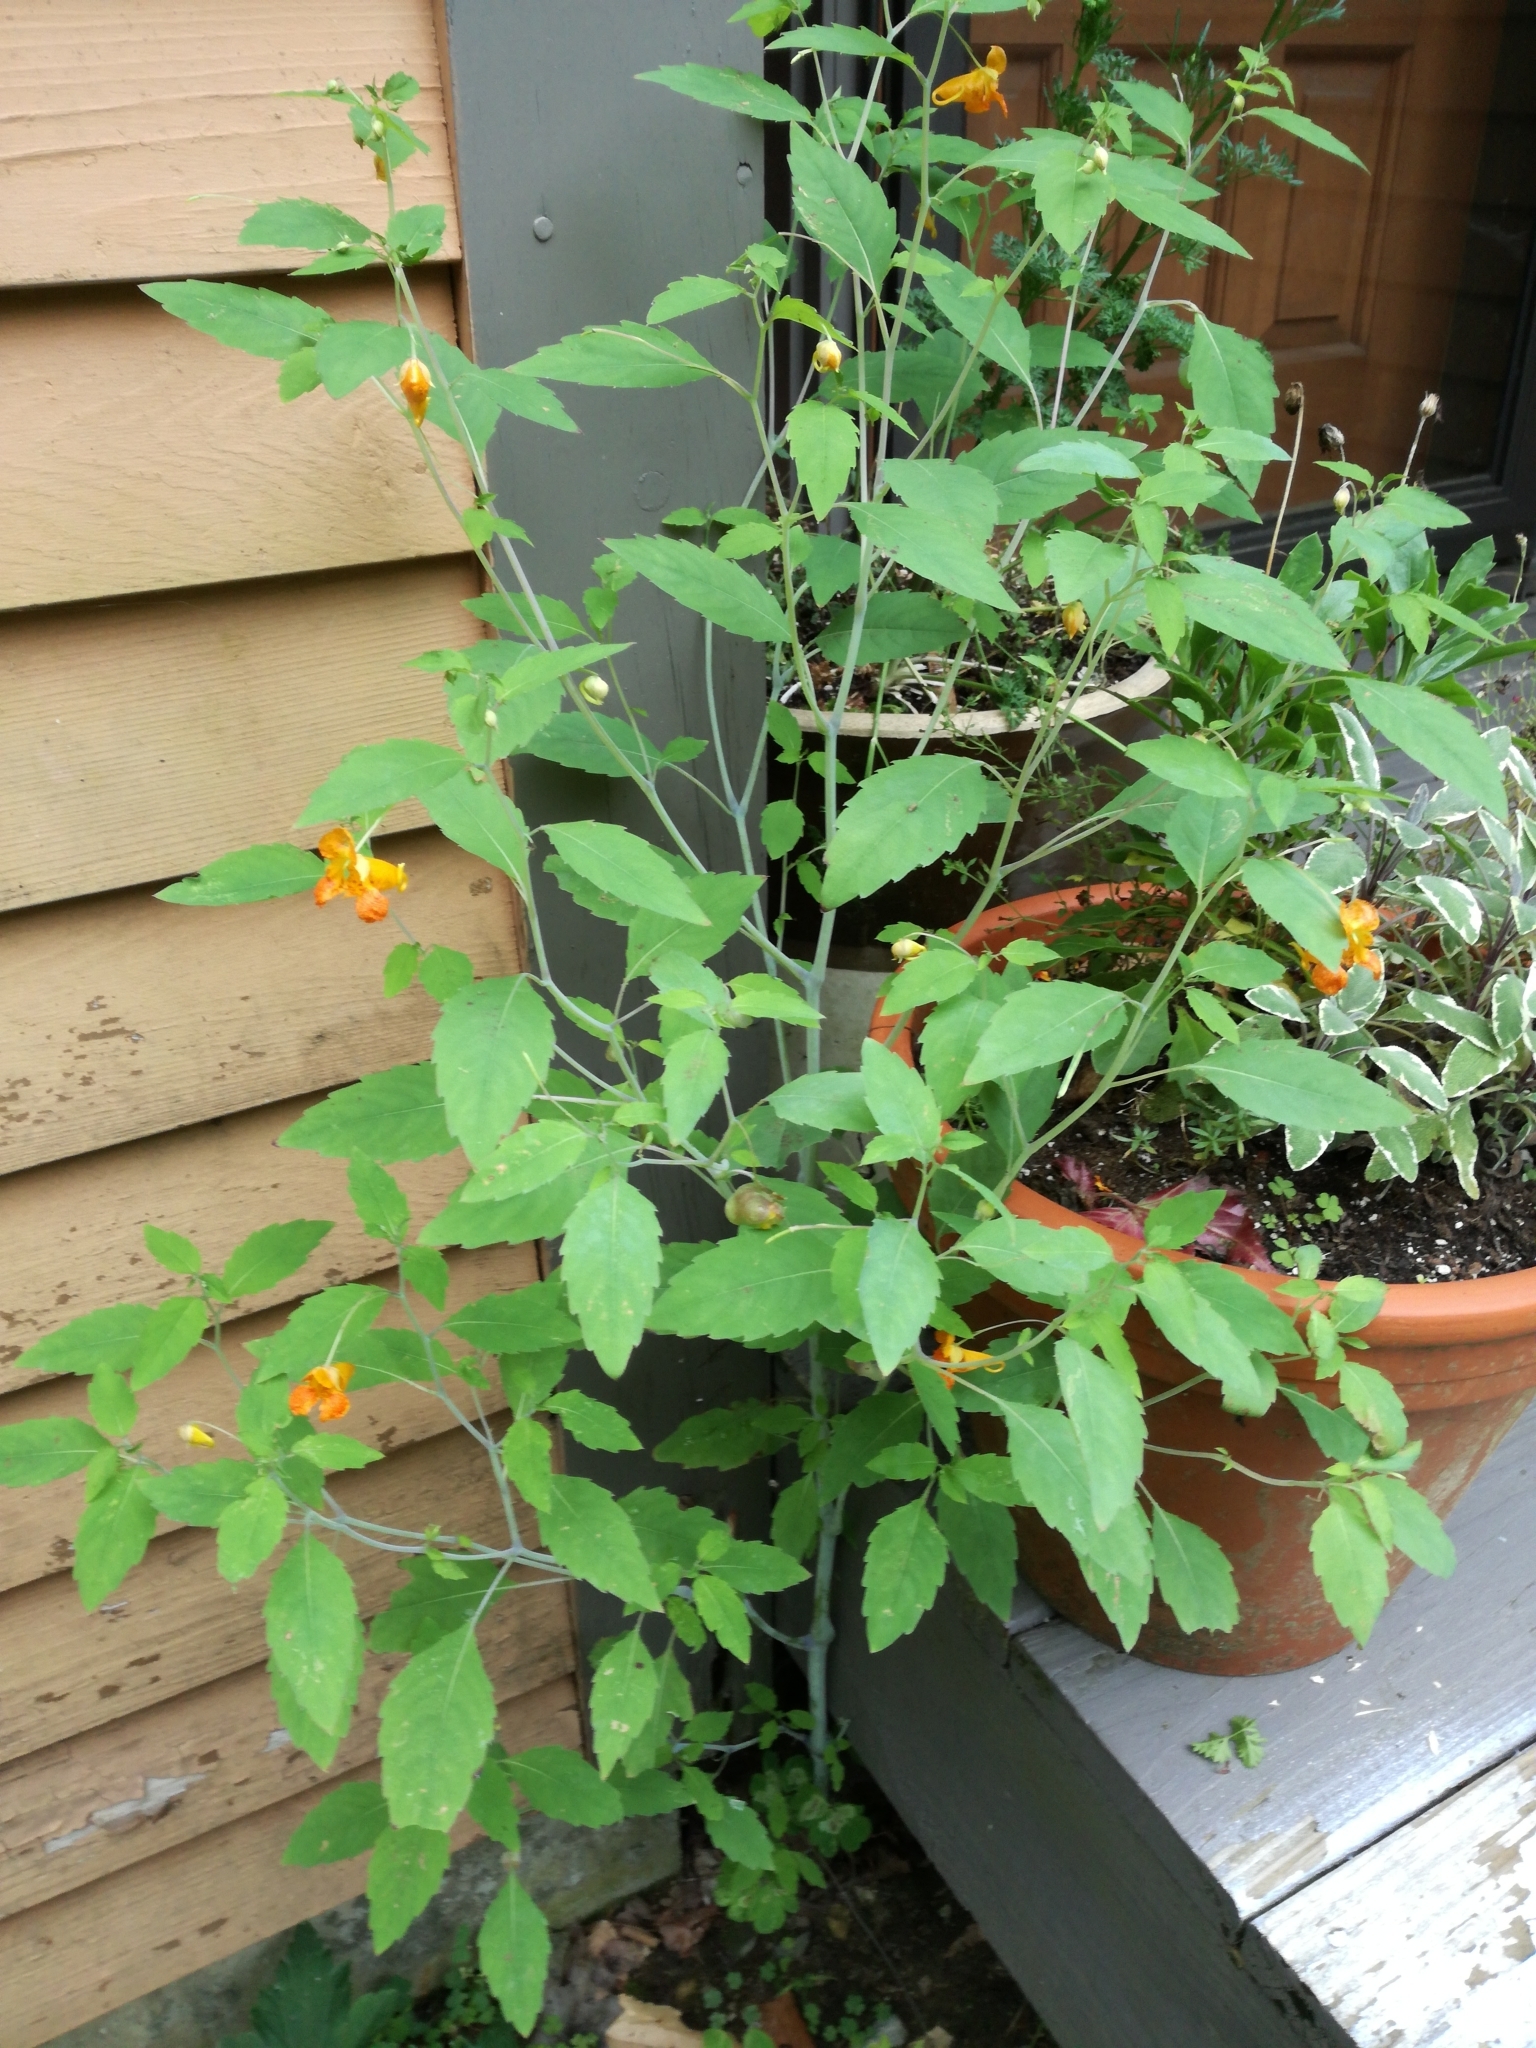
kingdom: Plantae
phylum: Tracheophyta
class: Magnoliopsida
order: Ericales
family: Balsaminaceae
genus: Impatiens
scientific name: Impatiens capensis
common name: Orange balsam
